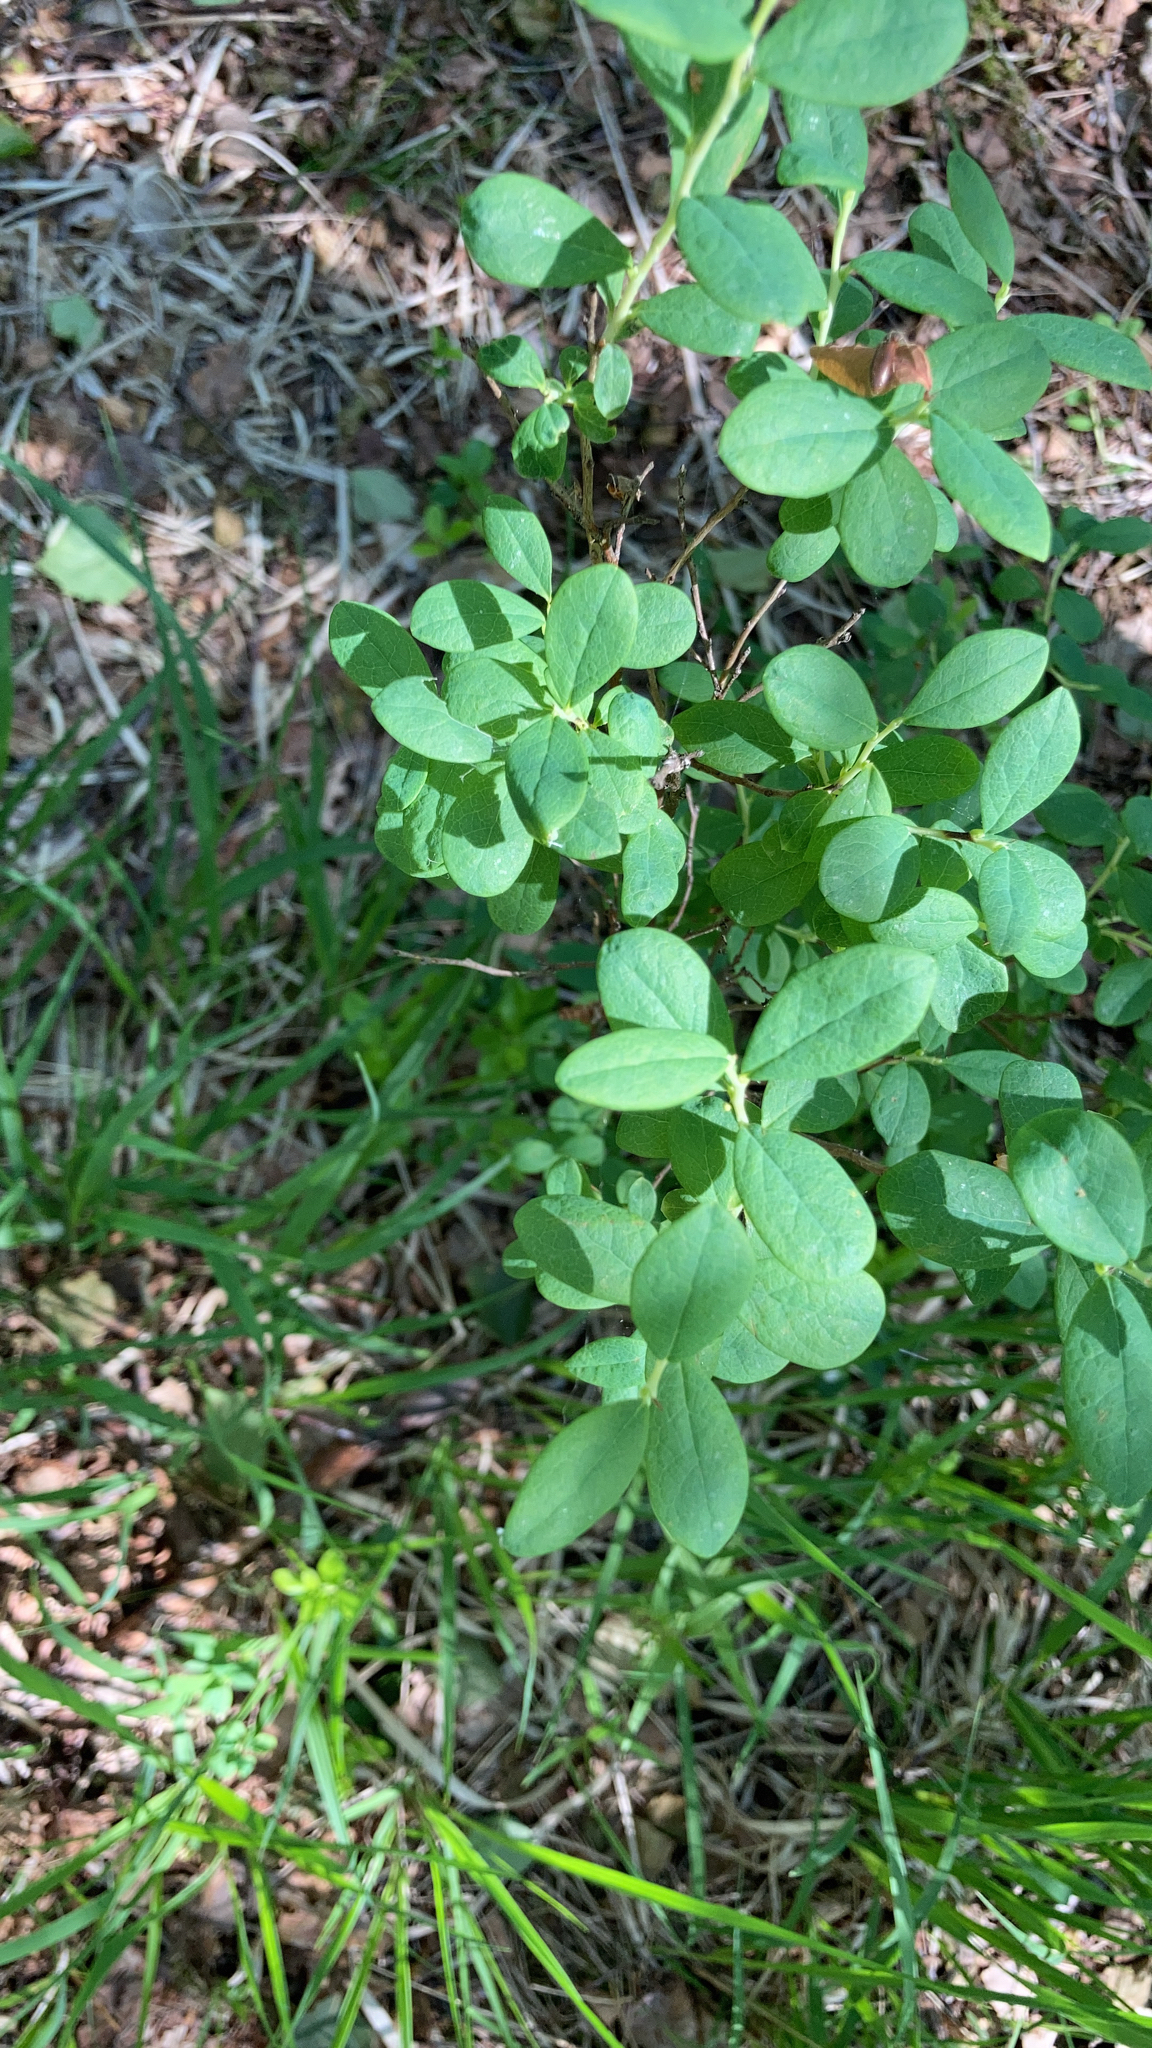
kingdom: Plantae
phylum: Tracheophyta
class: Magnoliopsida
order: Ericales
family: Ericaceae
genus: Vaccinium
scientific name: Vaccinium uliginosum
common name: Bog bilberry
